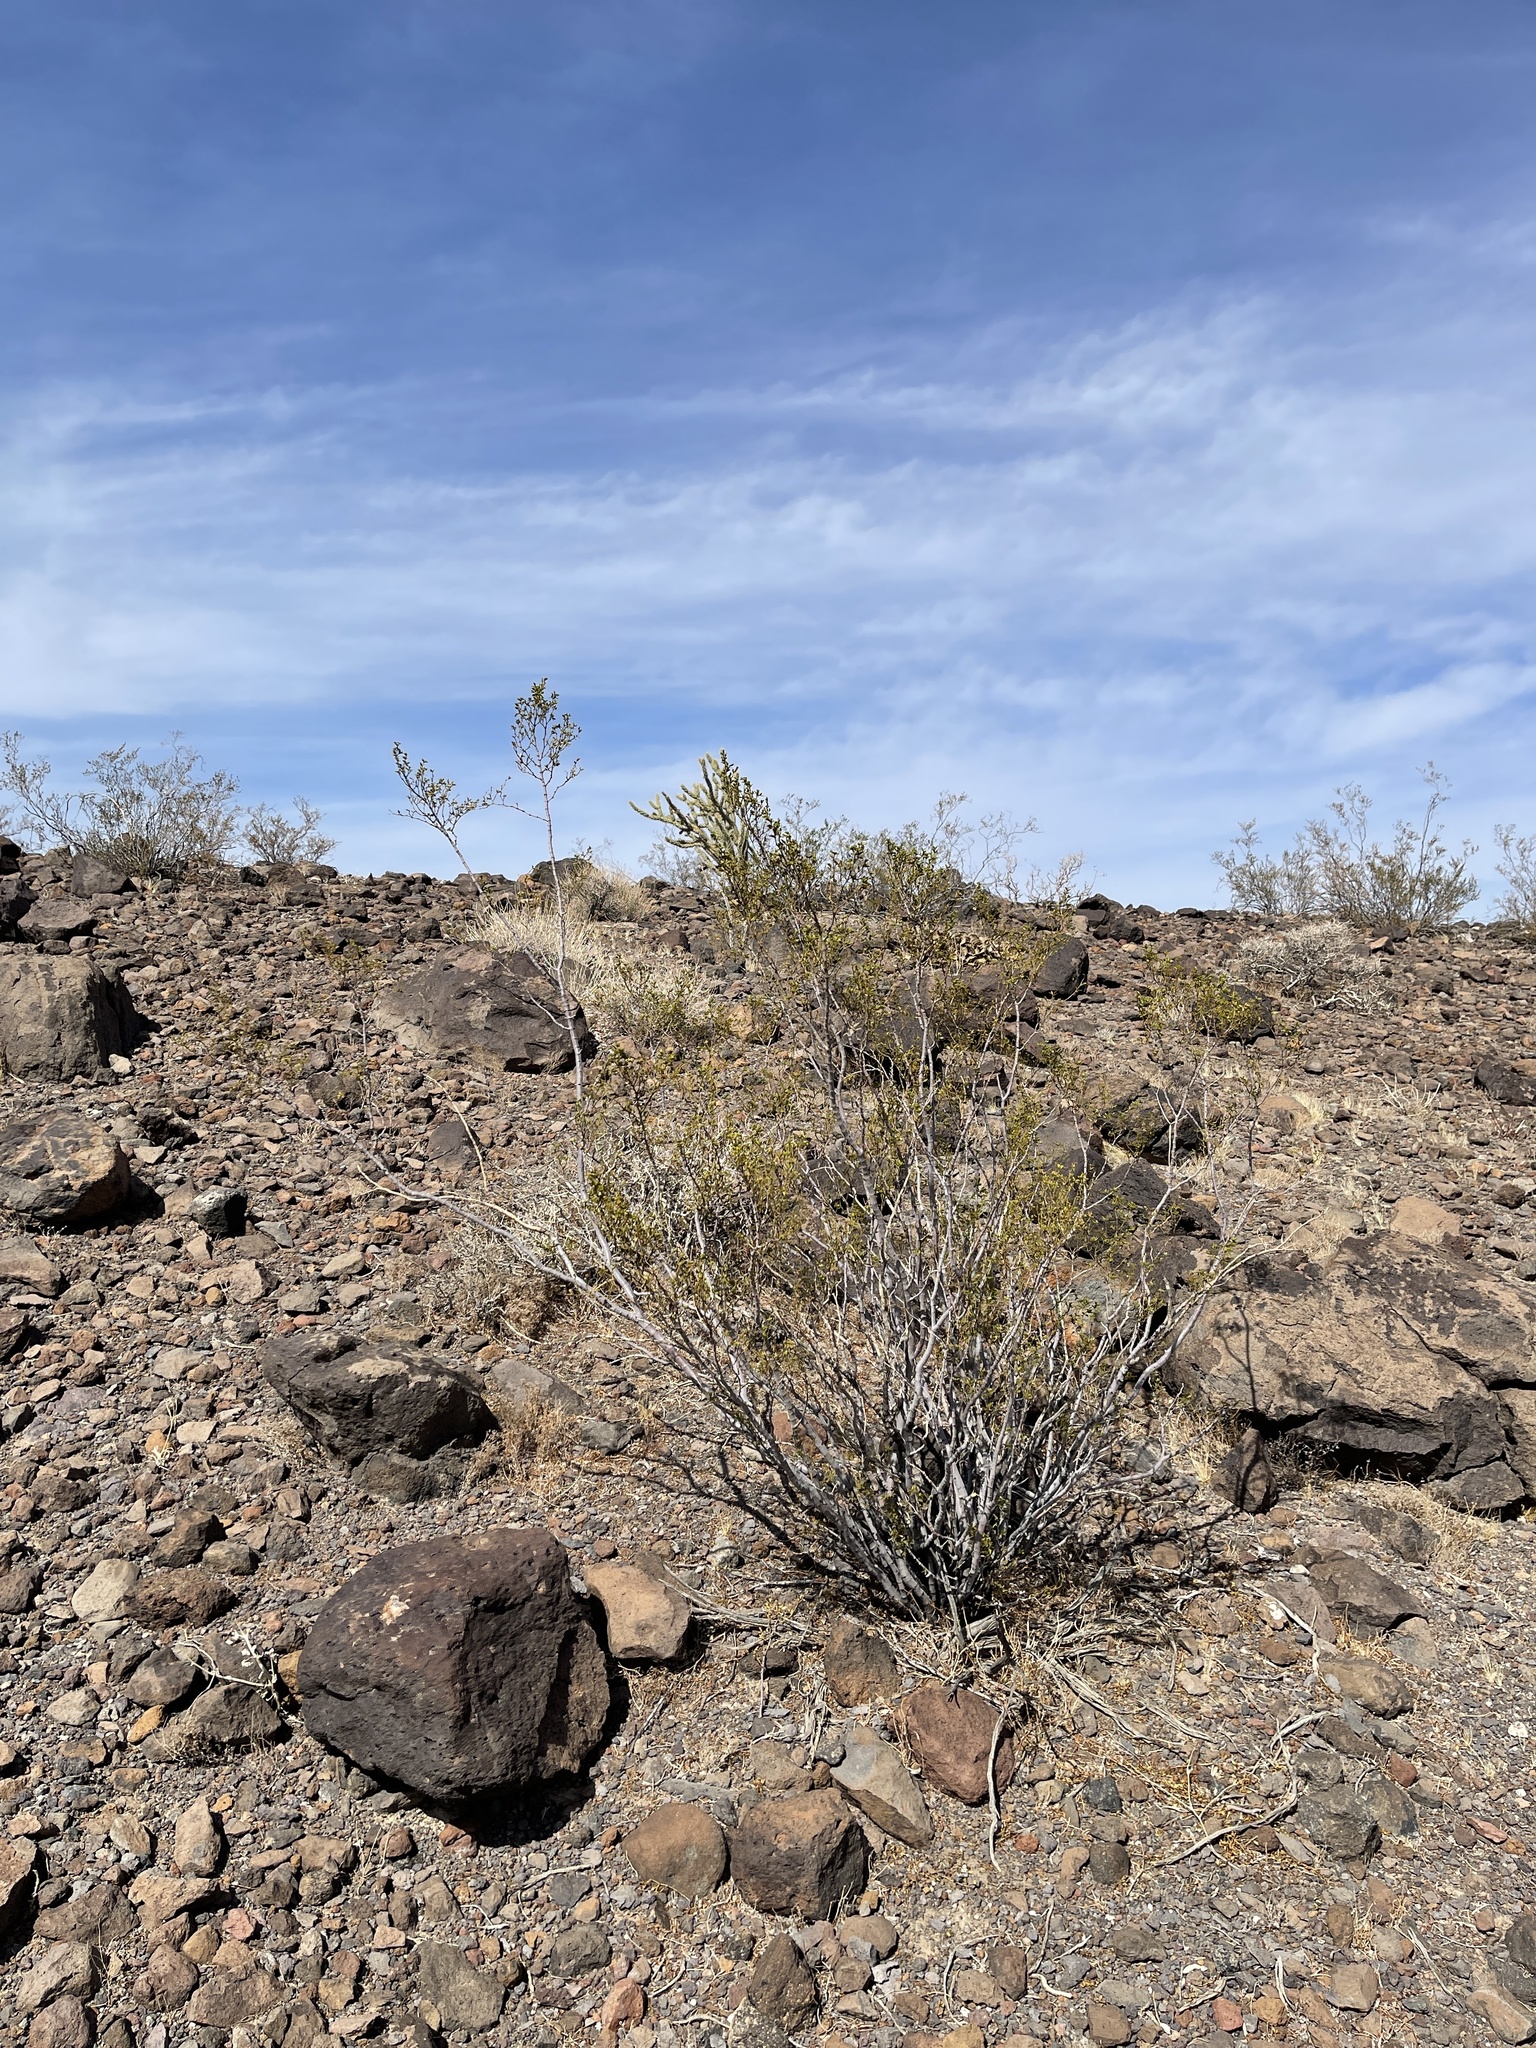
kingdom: Plantae
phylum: Tracheophyta
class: Magnoliopsida
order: Zygophyllales
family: Zygophyllaceae
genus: Larrea
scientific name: Larrea tridentata
